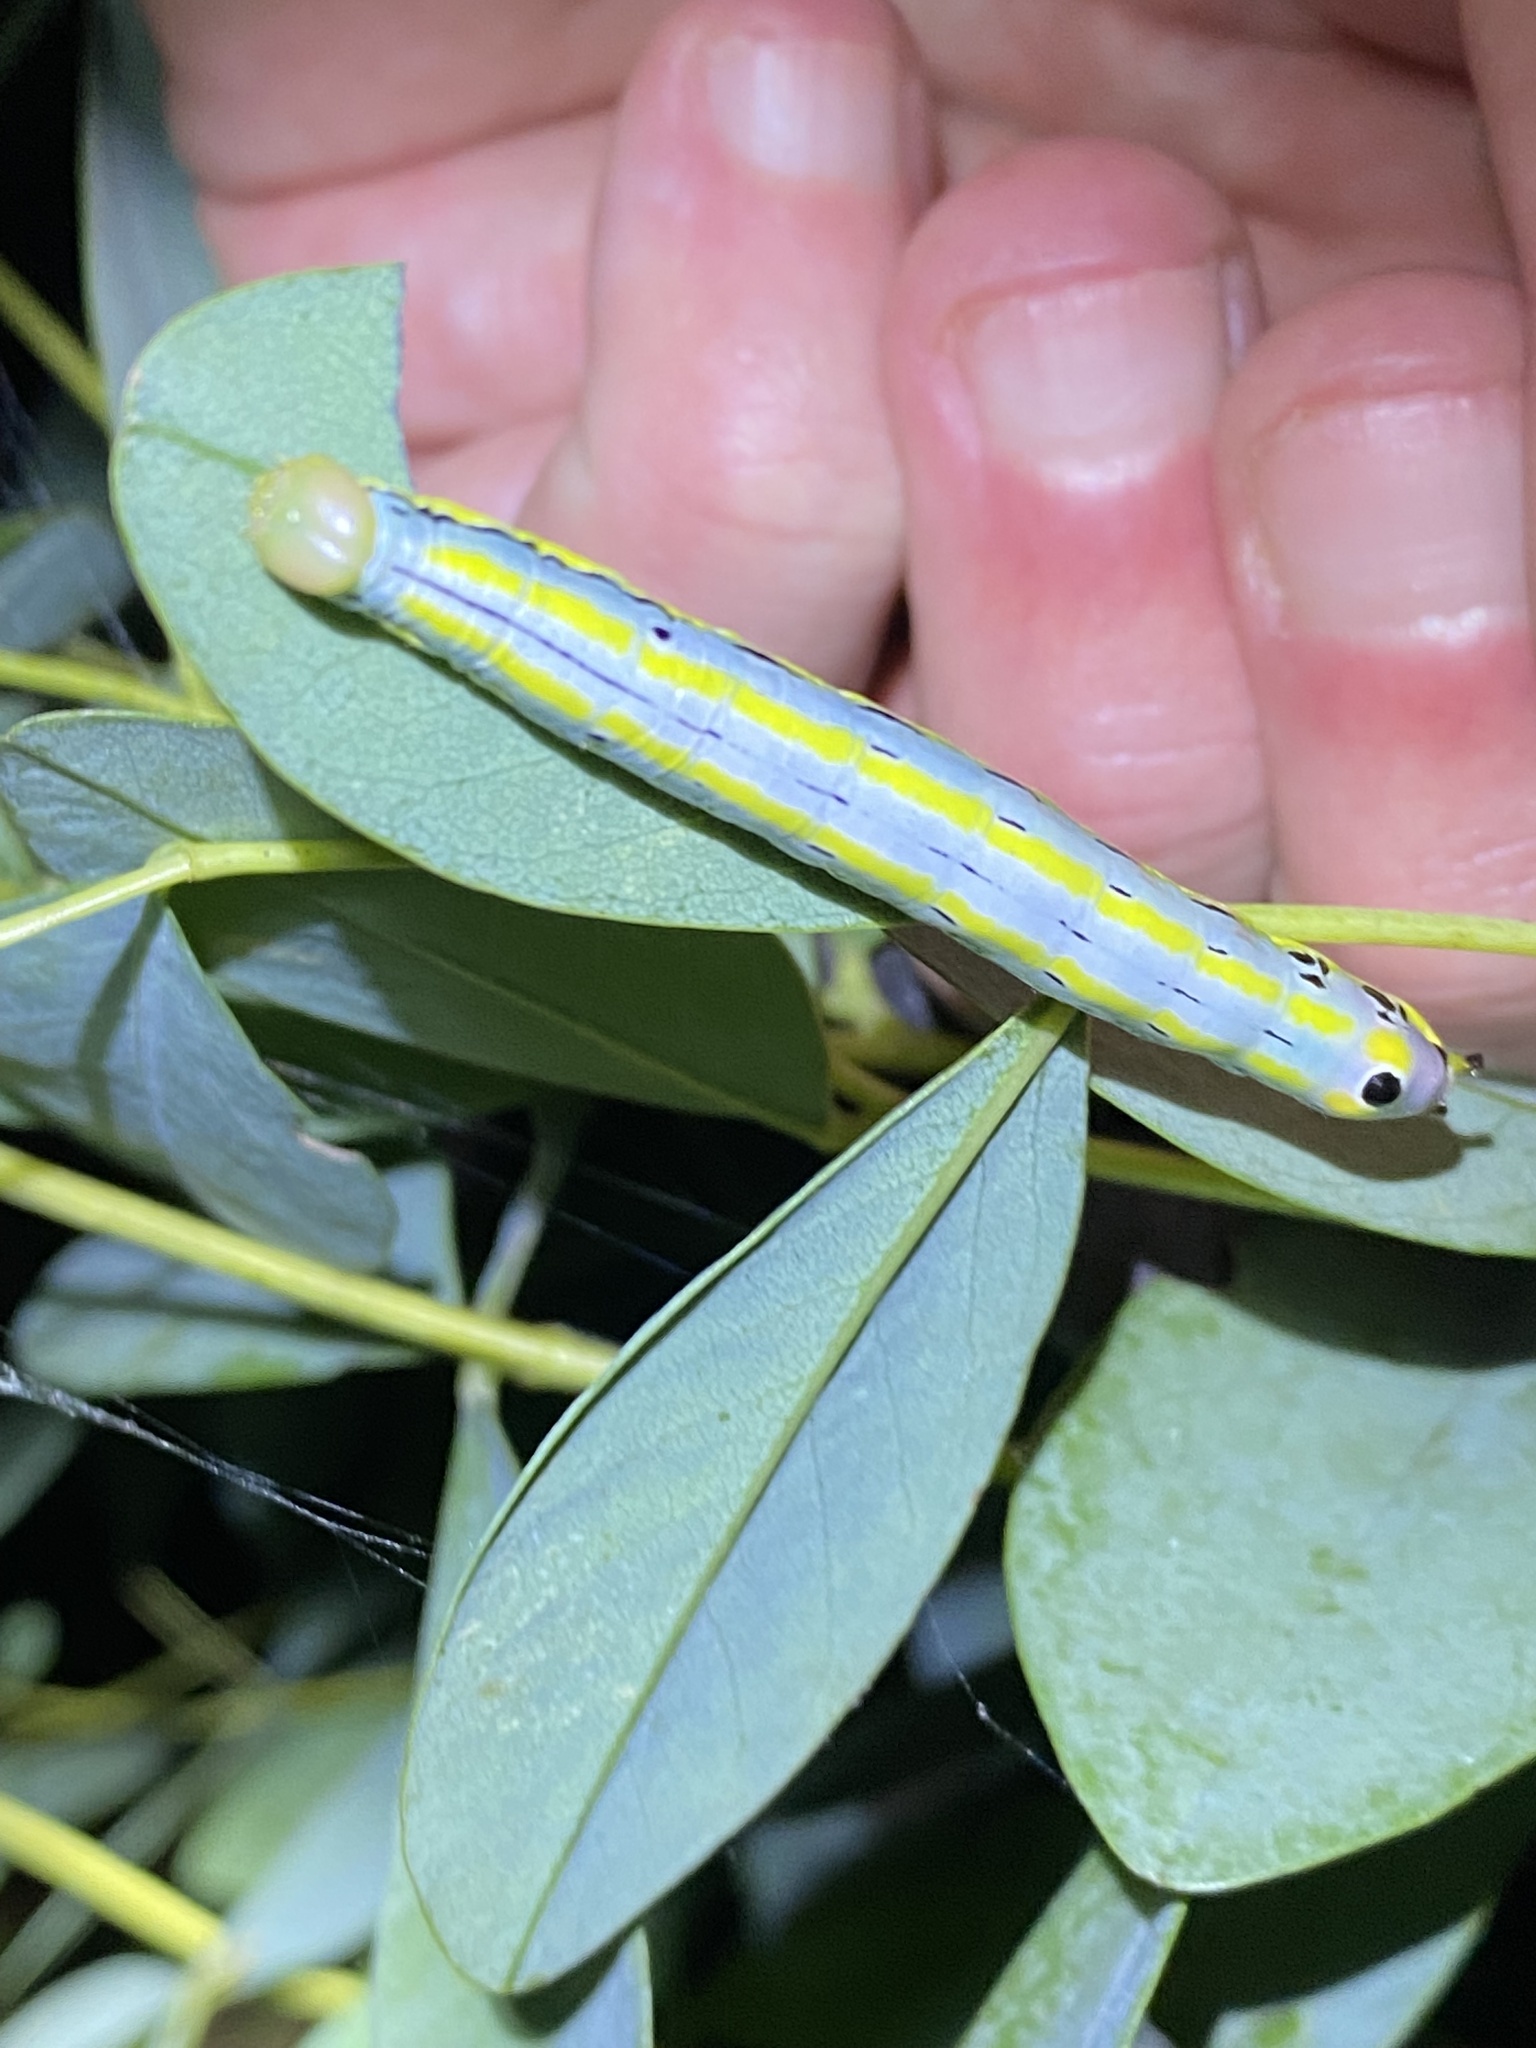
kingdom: Animalia
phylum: Arthropoda
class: Insecta
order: Lepidoptera
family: Notodontidae
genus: Dasylophia
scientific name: Dasylophia anguina
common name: Black-spotted prominent
